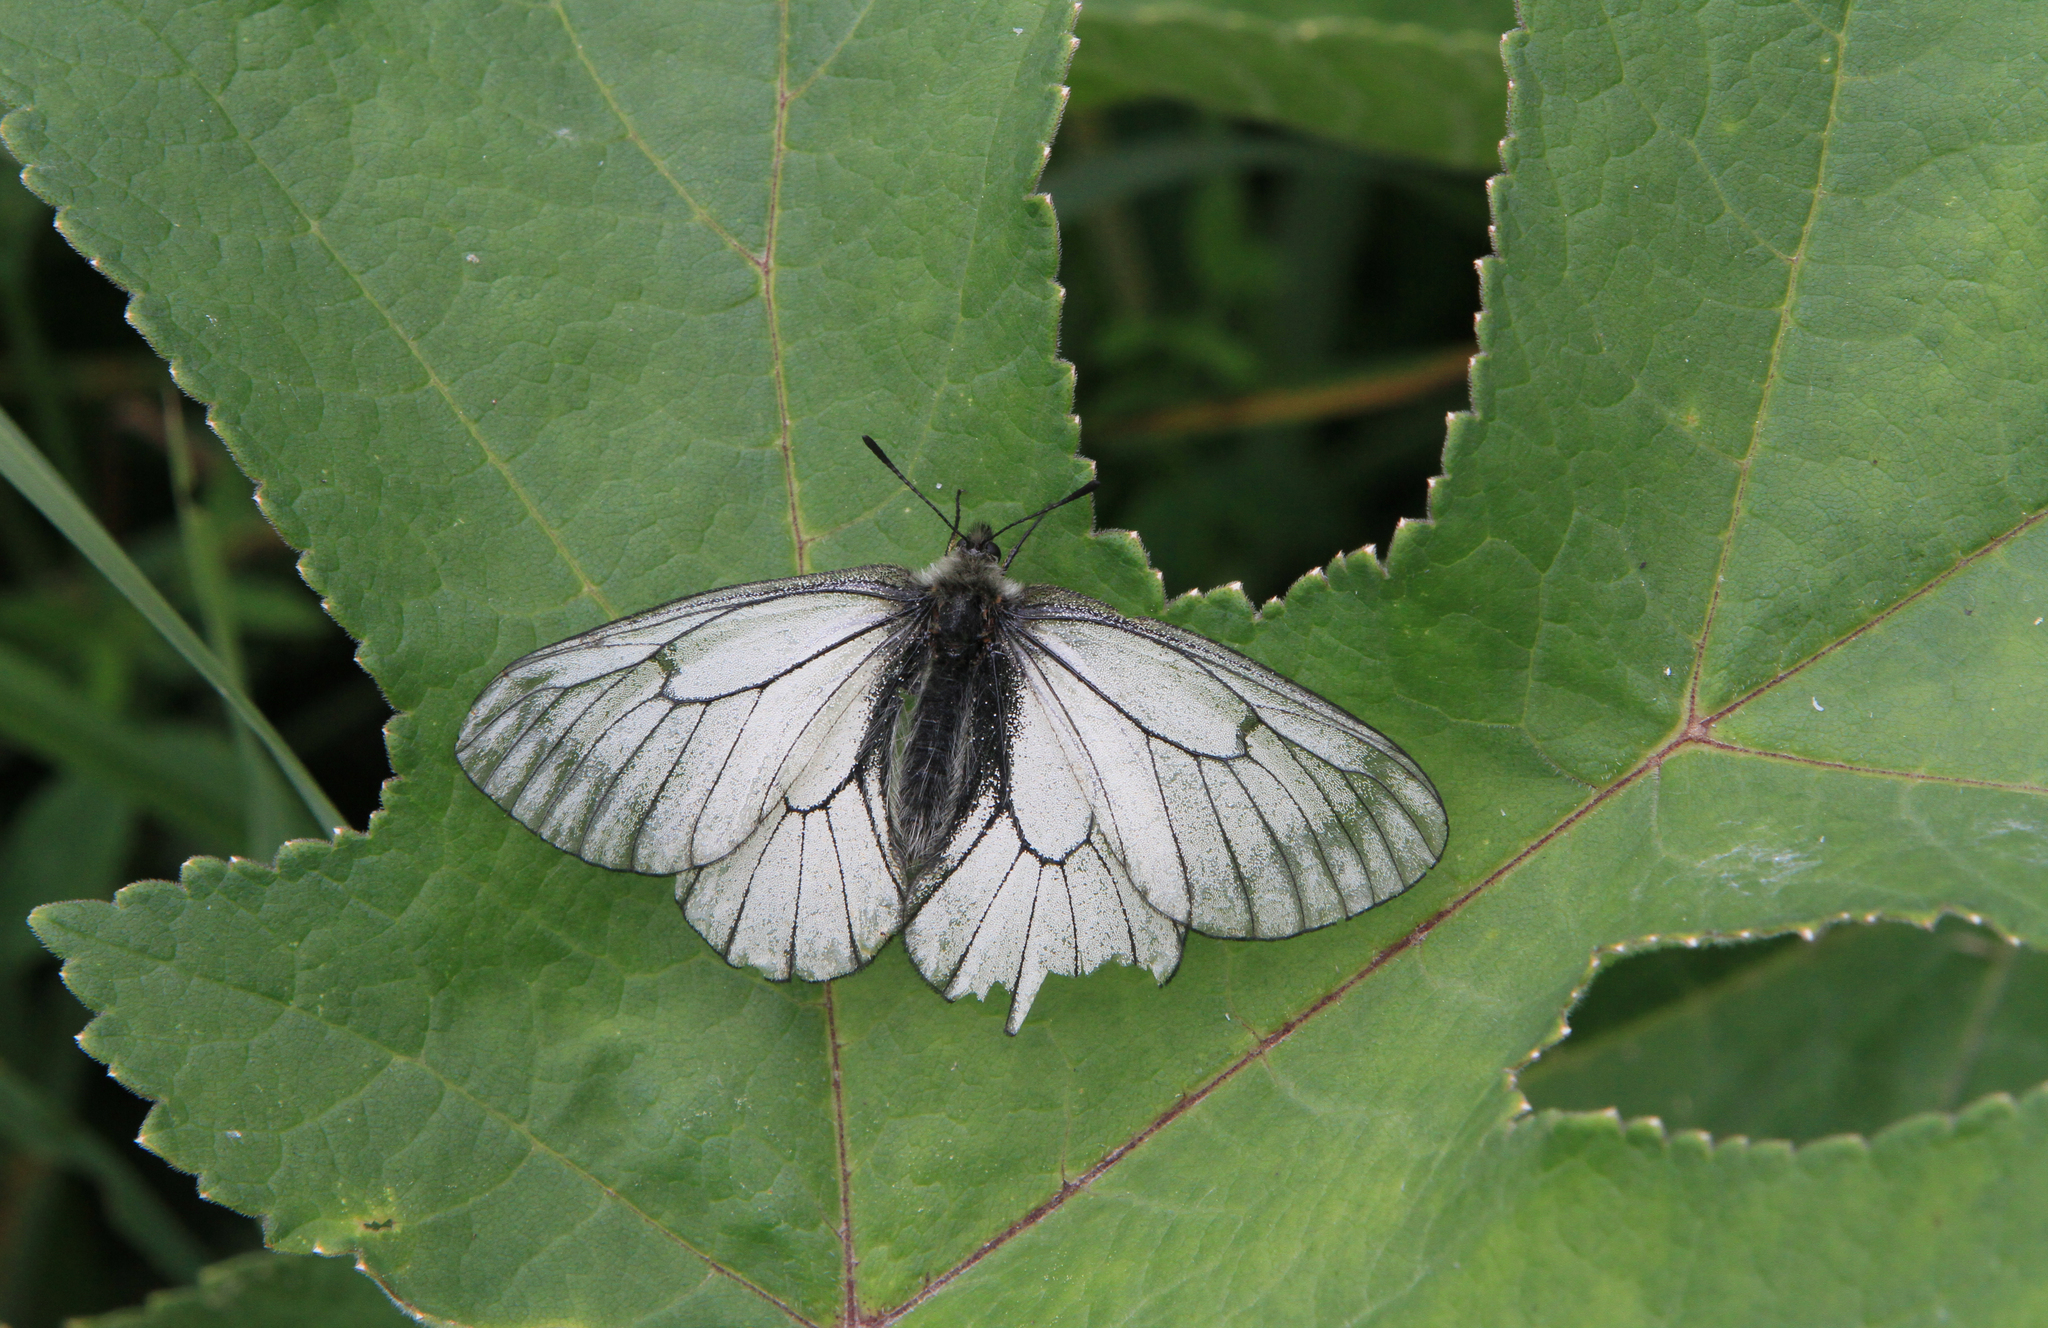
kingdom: Animalia
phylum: Arthropoda
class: Insecta
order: Lepidoptera
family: Papilionidae
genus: Parnassius
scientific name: Parnassius stubbendorfii
